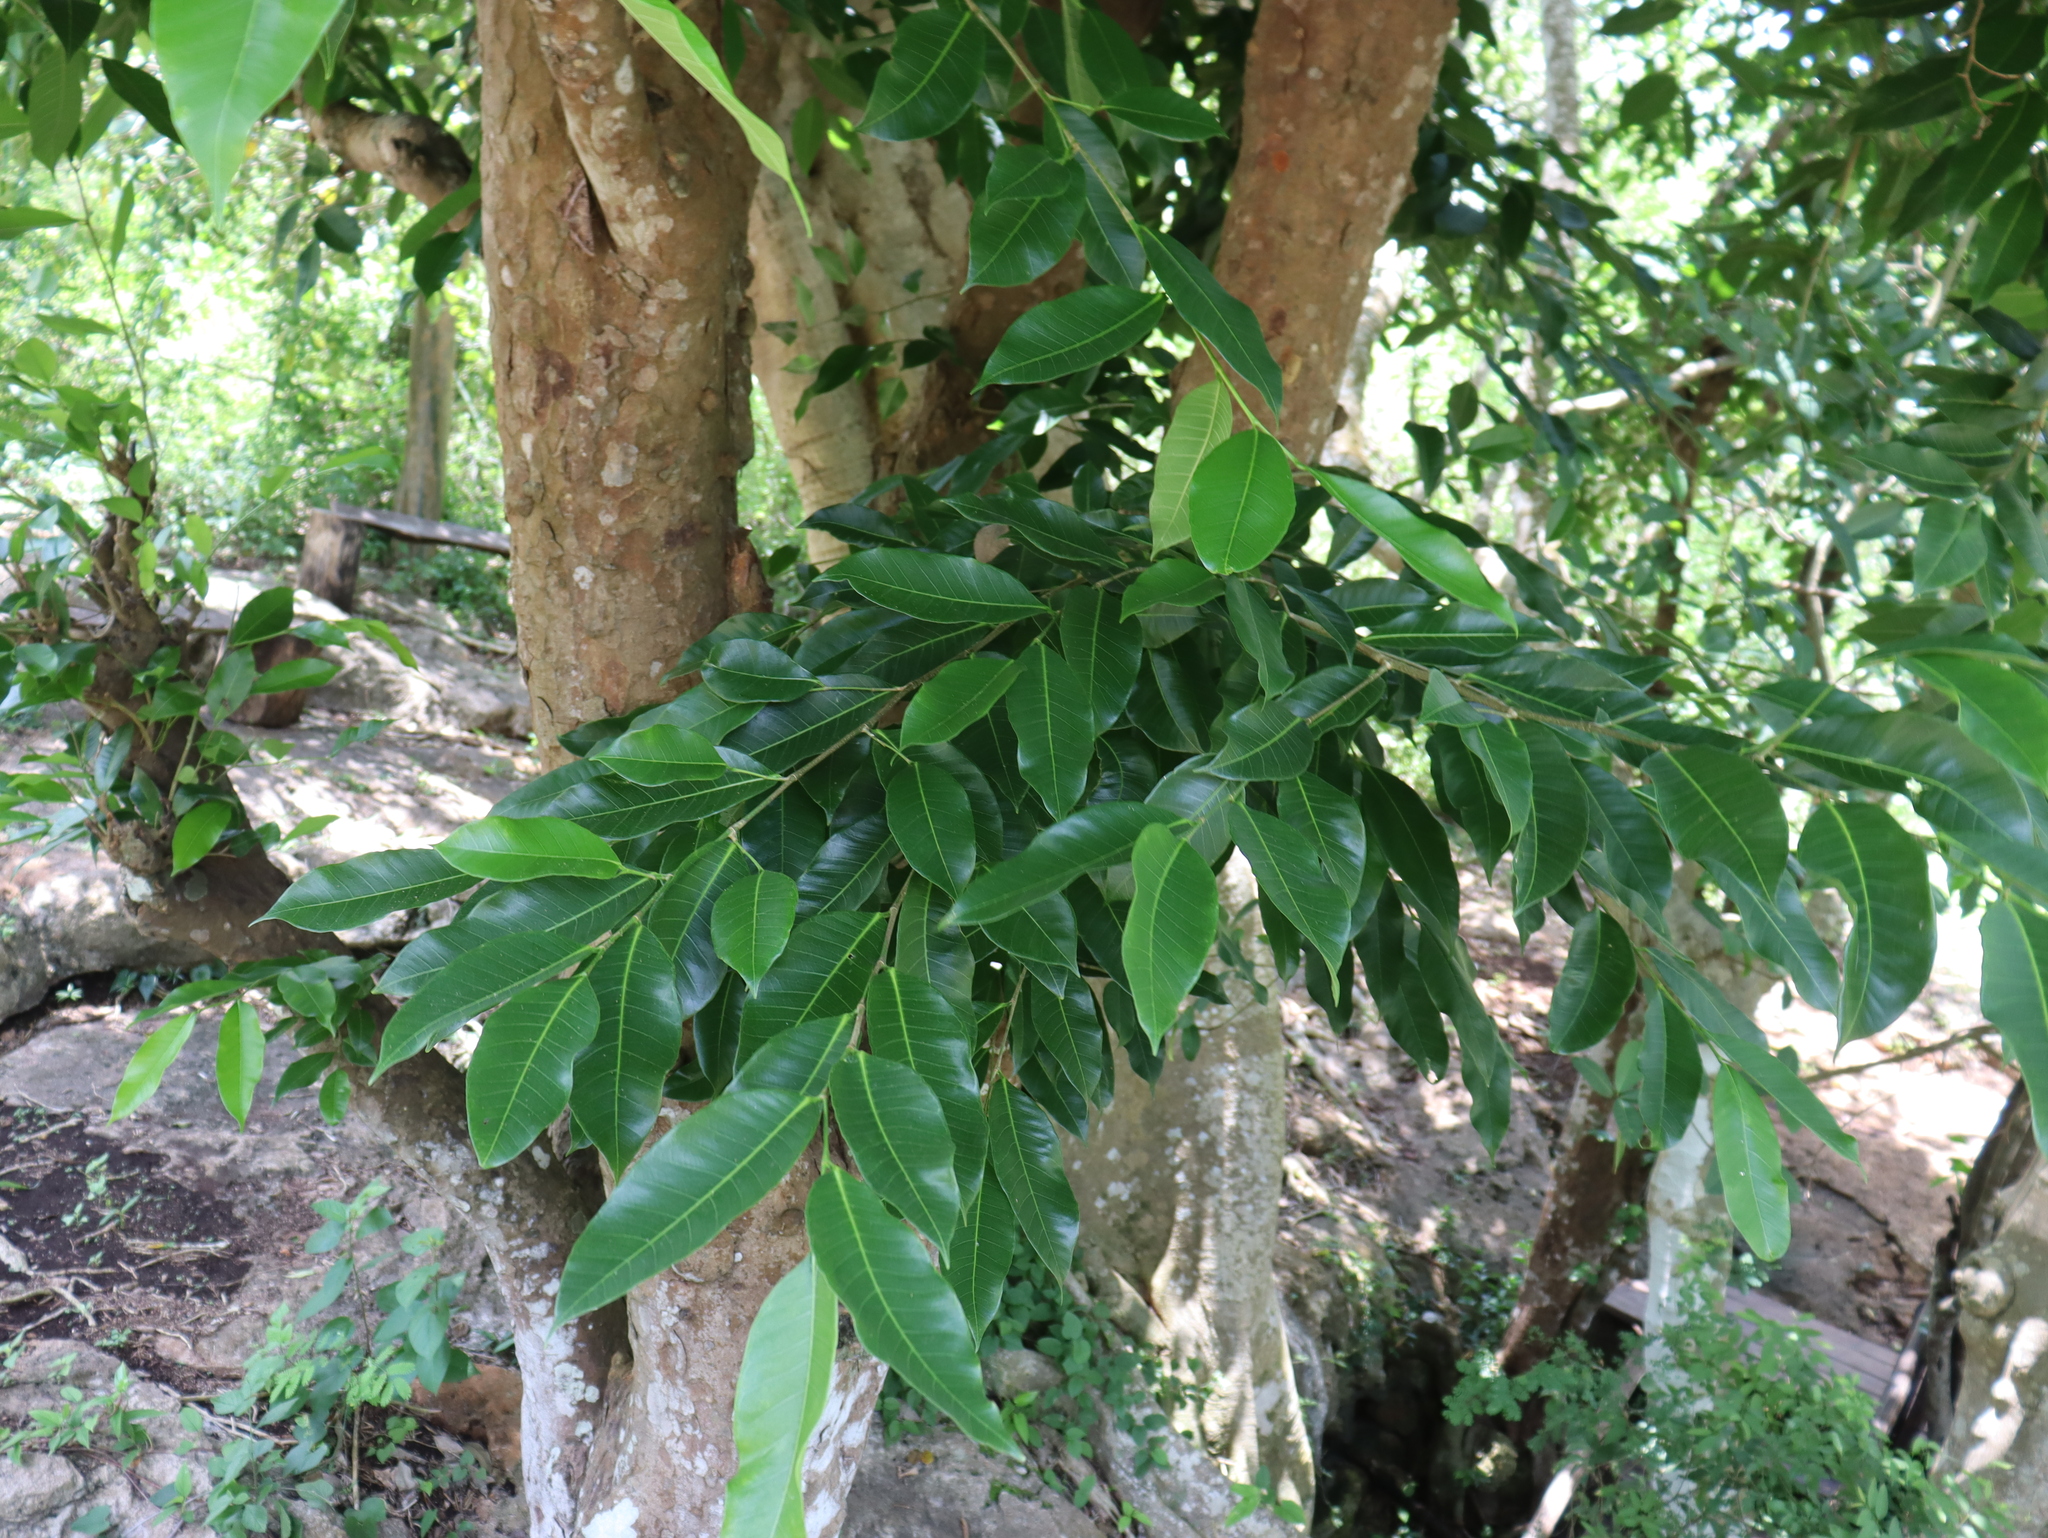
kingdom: Plantae
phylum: Tracheophyta
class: Magnoliopsida
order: Rosales
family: Moraceae
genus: Brosimum
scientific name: Brosimum alicastrum
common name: Breadnut
